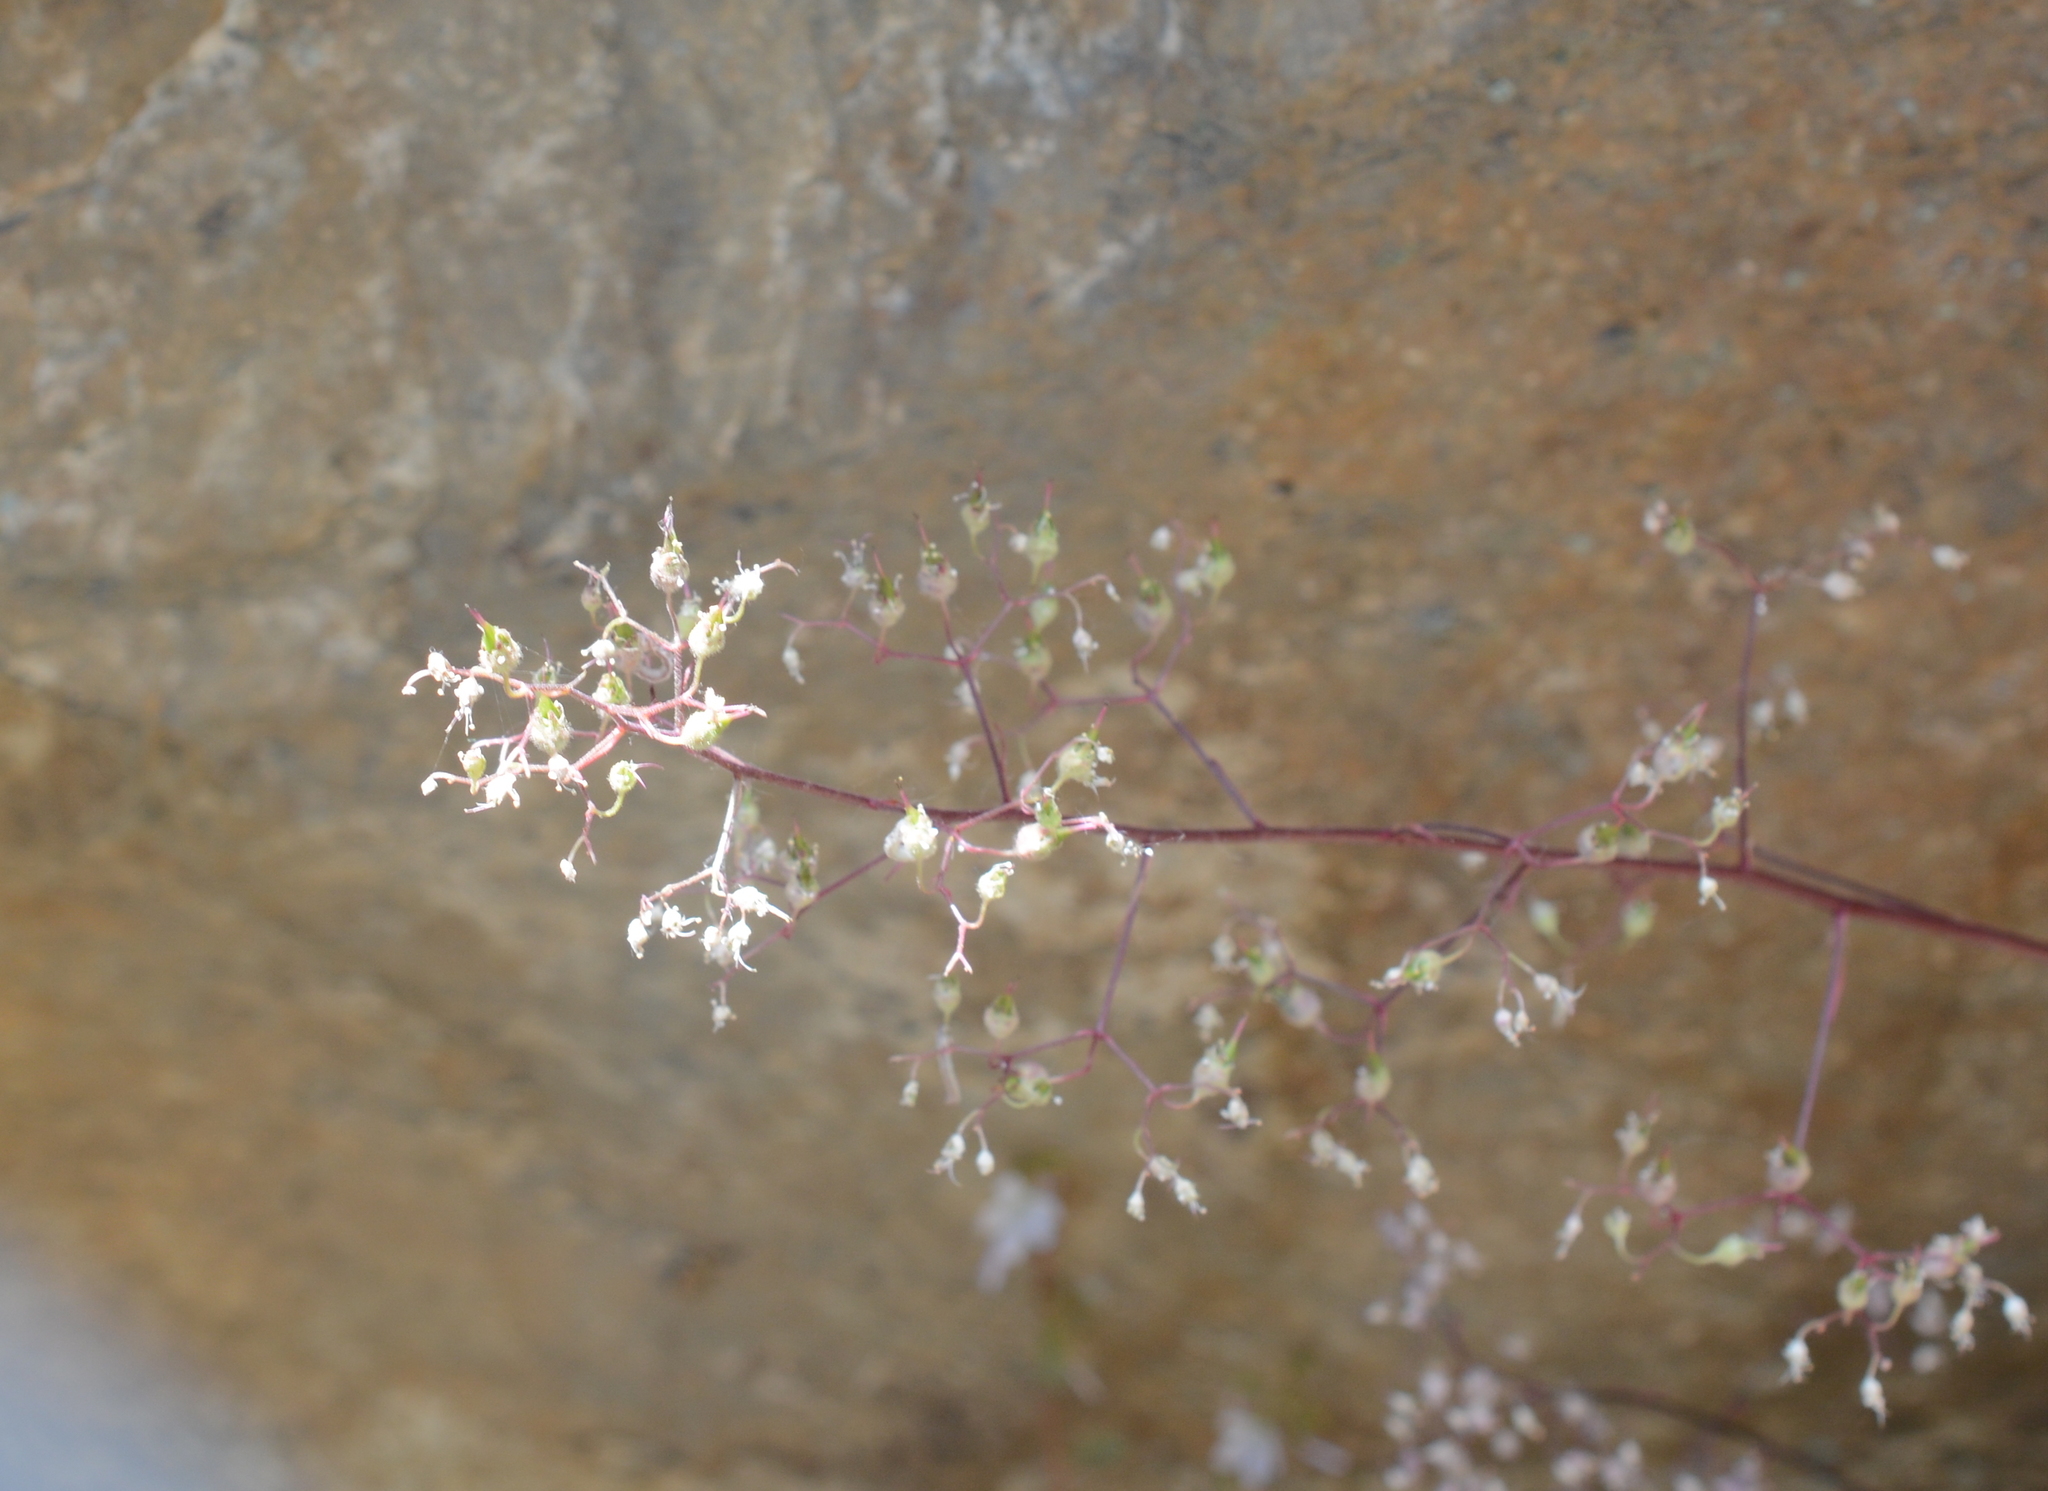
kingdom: Plantae
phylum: Tracheophyta
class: Magnoliopsida
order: Saxifragales
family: Saxifragaceae
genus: Heuchera
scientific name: Heuchera micrantha
